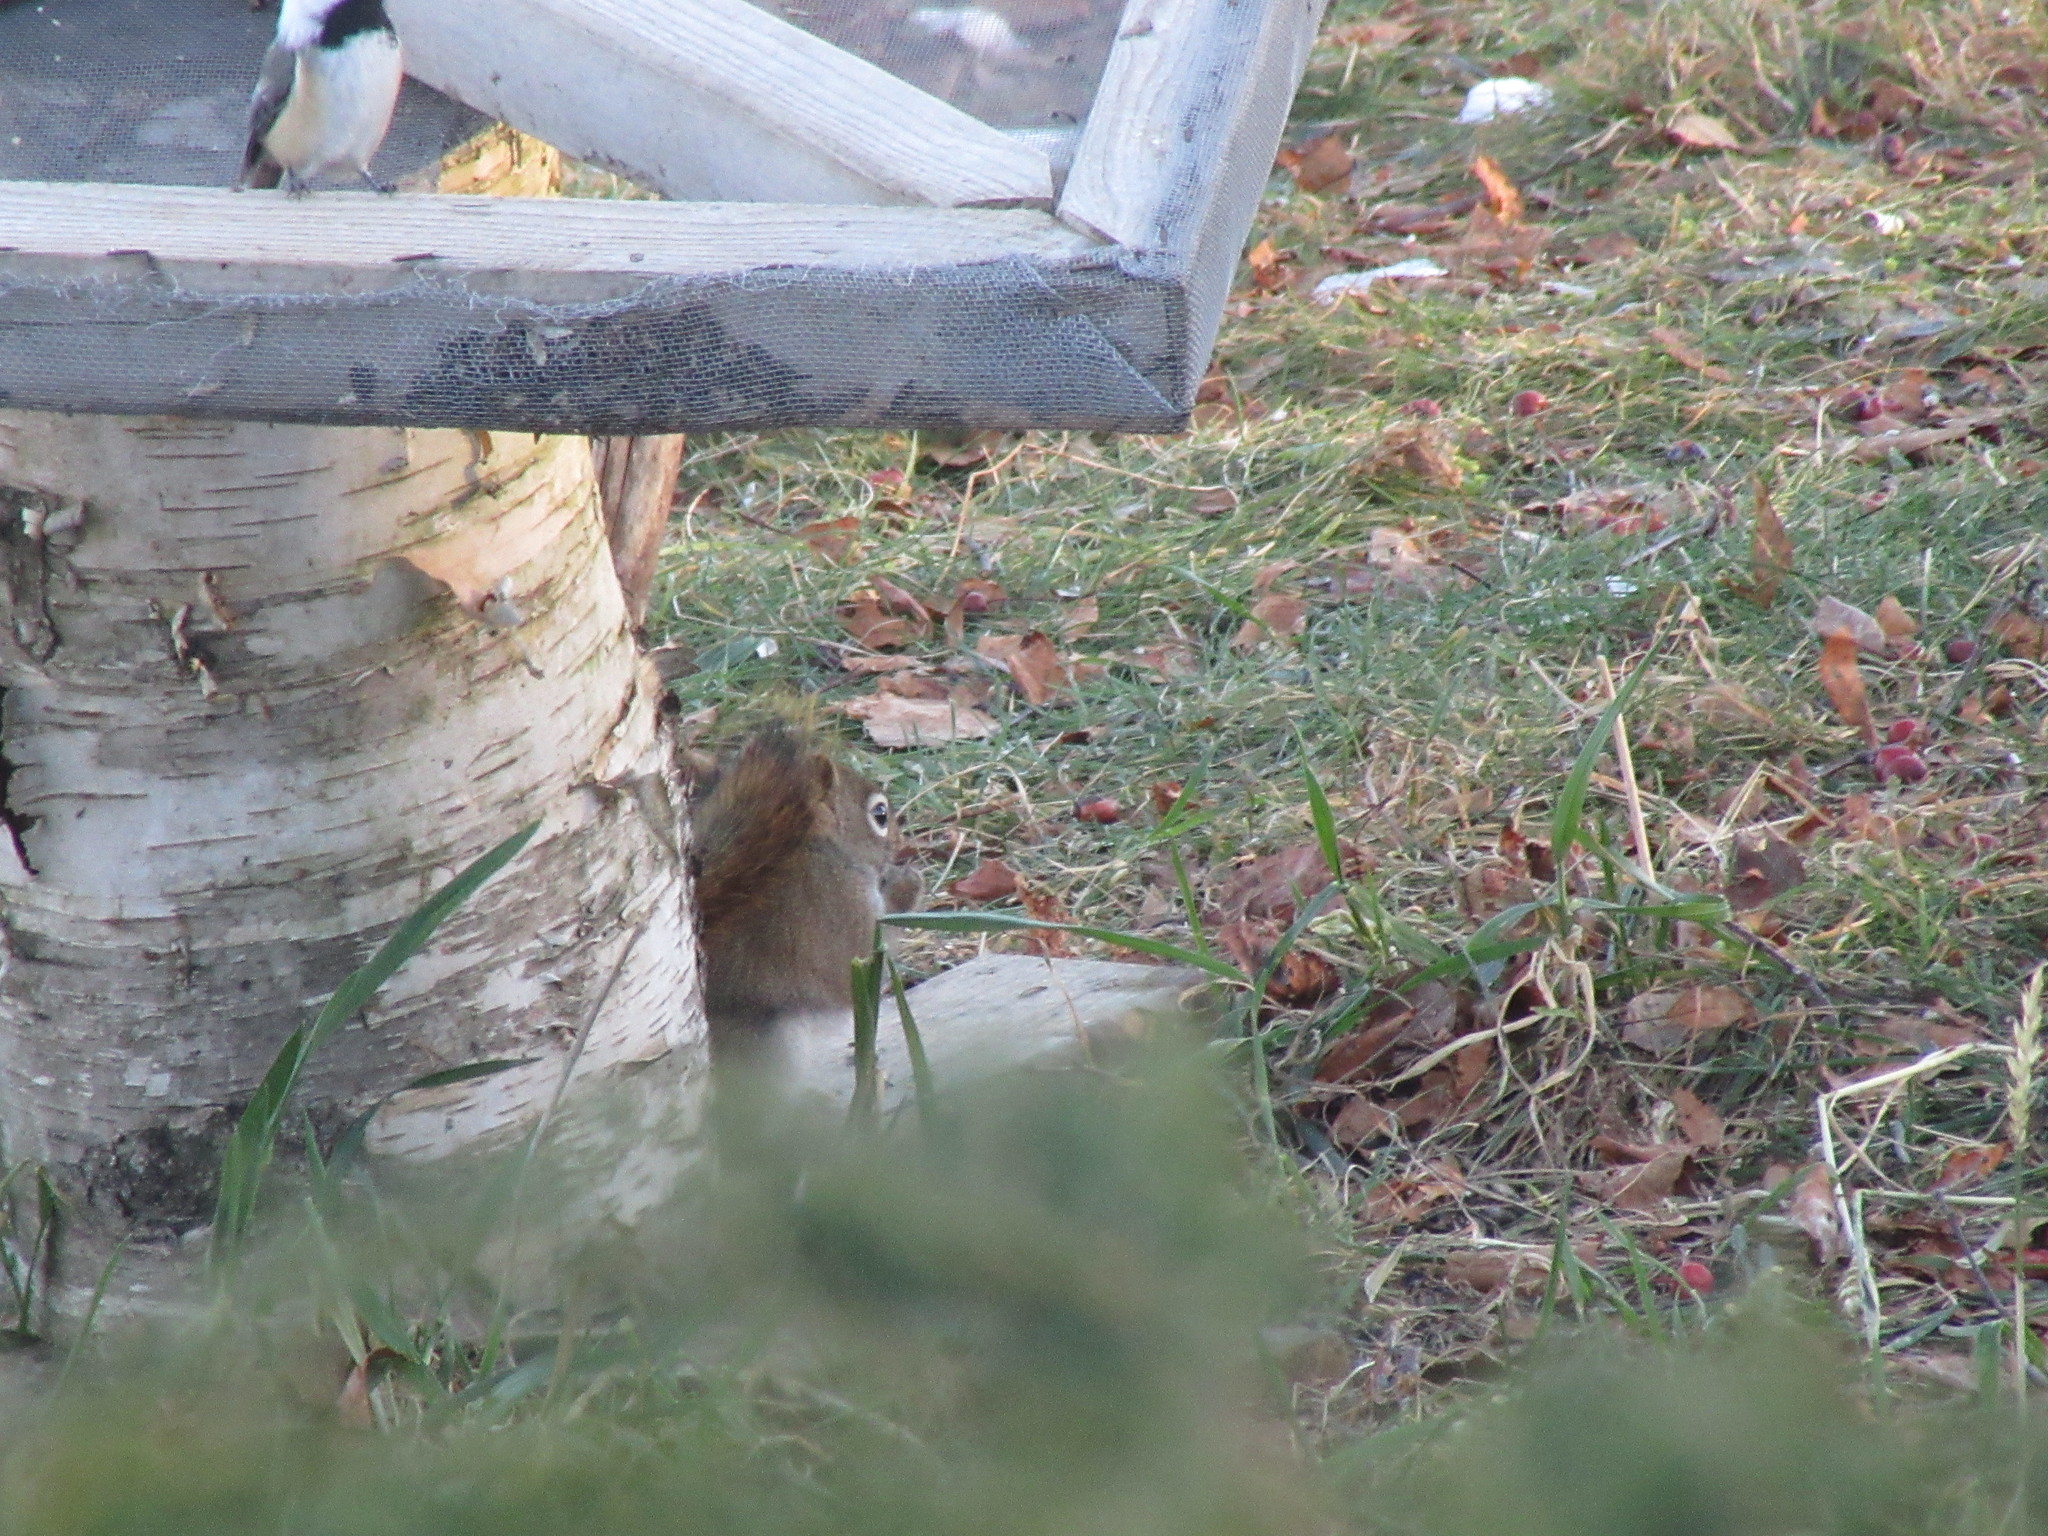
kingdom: Animalia
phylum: Chordata
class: Mammalia
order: Rodentia
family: Sciuridae
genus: Tamiasciurus
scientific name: Tamiasciurus hudsonicus
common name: Red squirrel
